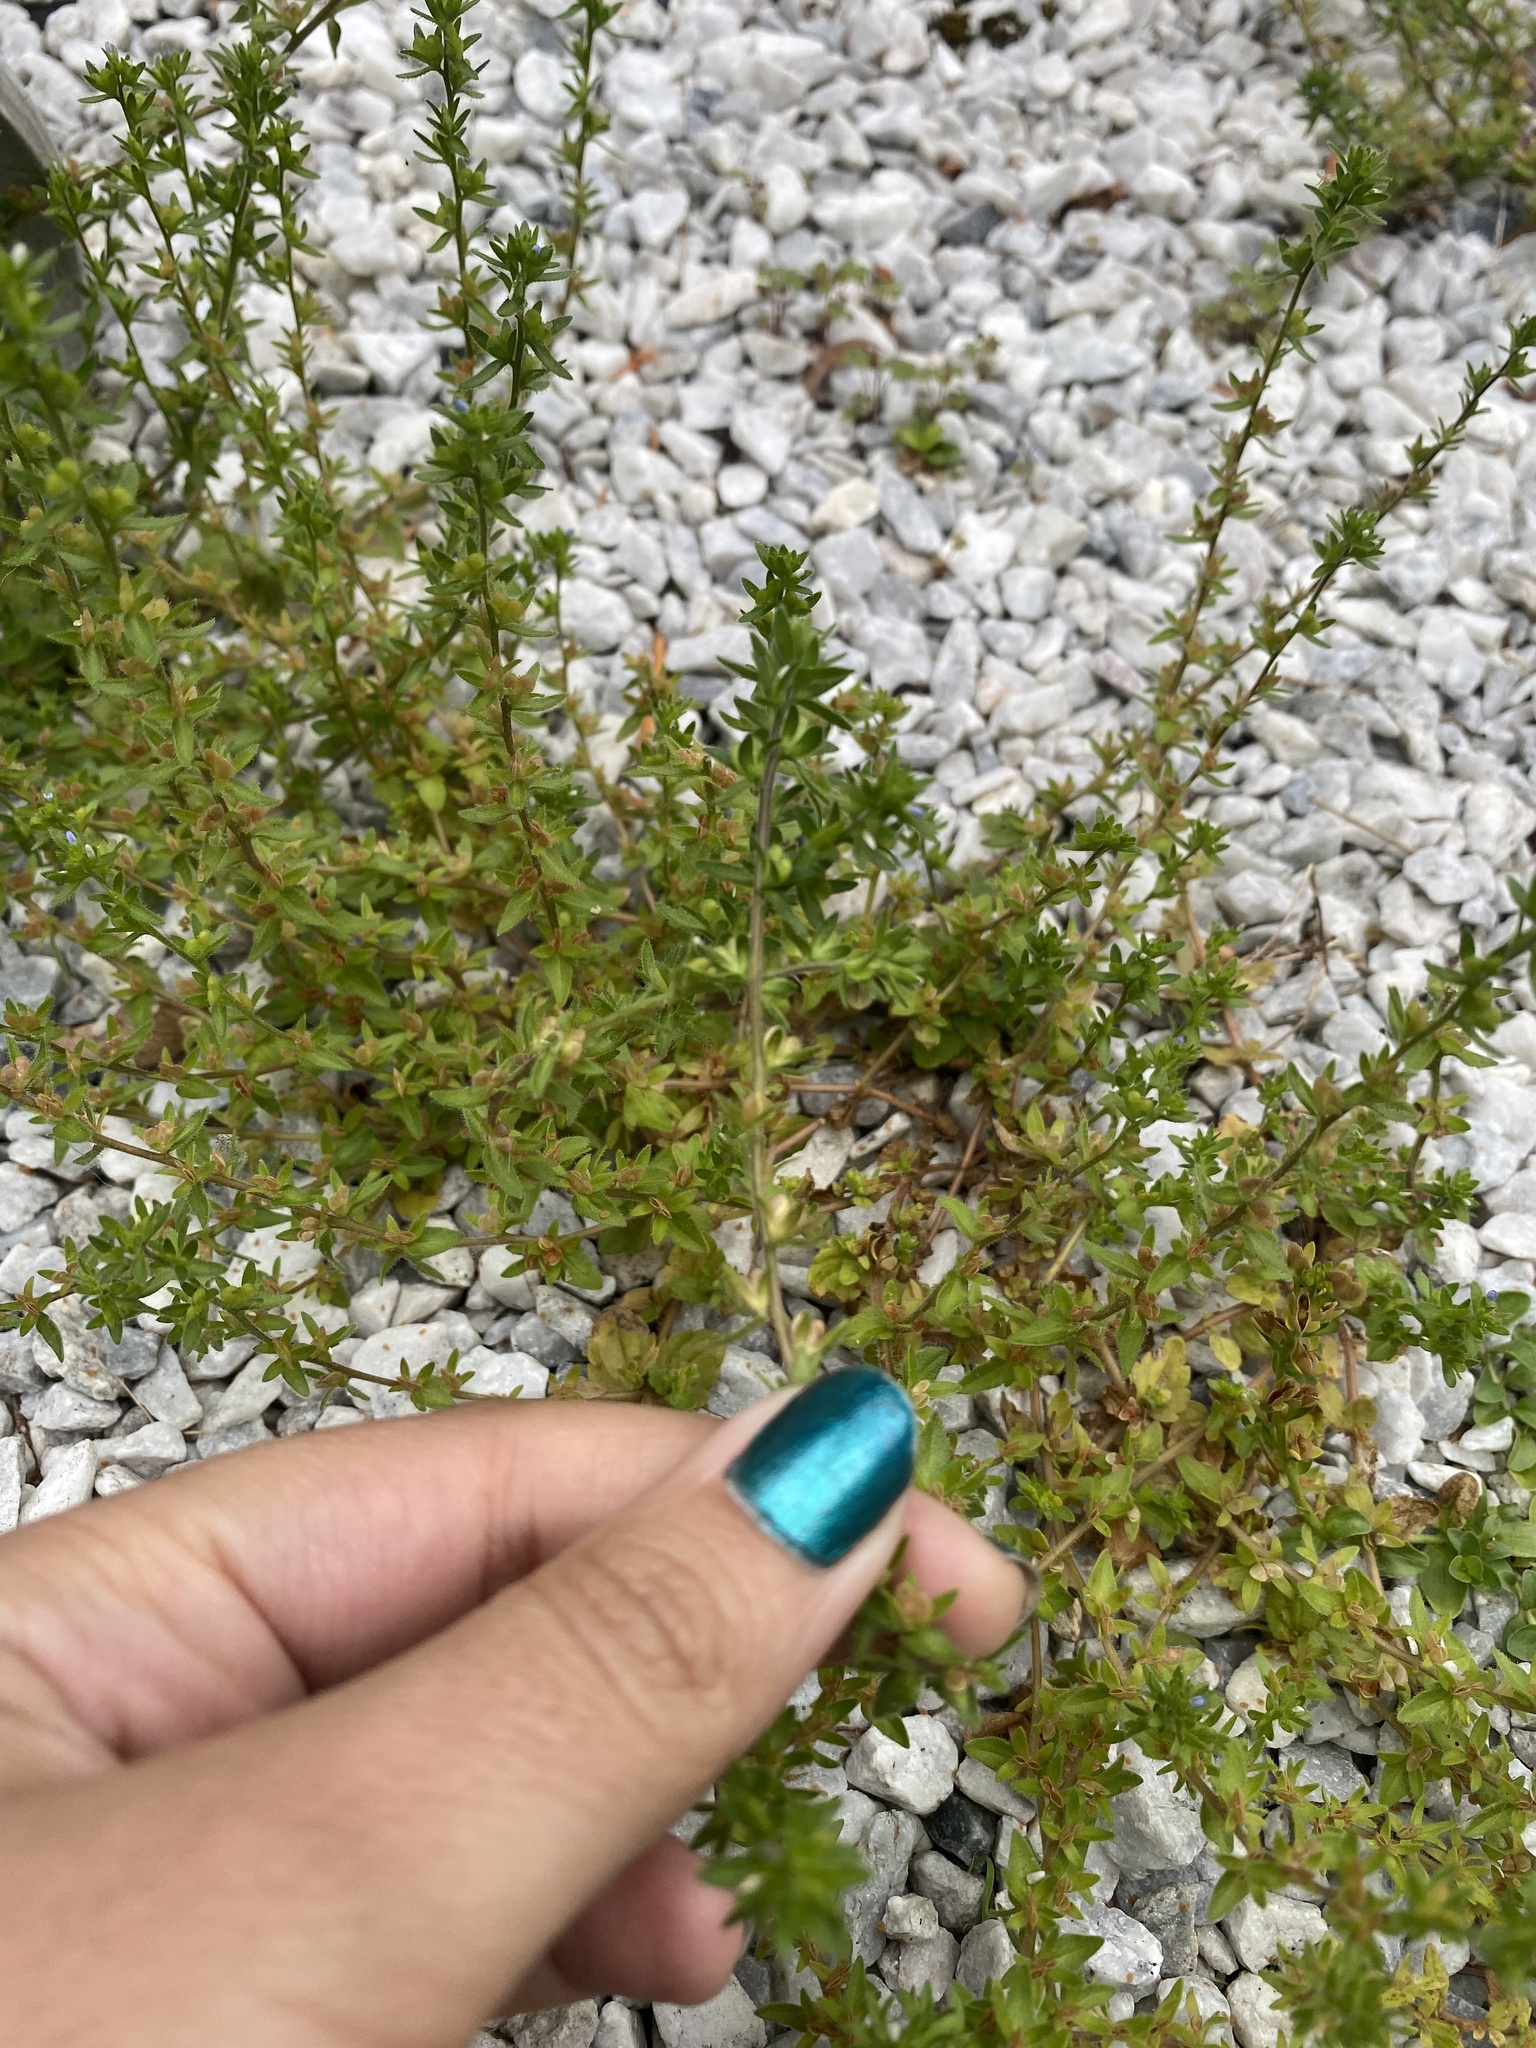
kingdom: Plantae
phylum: Tracheophyta
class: Magnoliopsida
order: Lamiales
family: Plantaginaceae
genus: Veronica
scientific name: Veronica arvensis
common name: Corn speedwell
